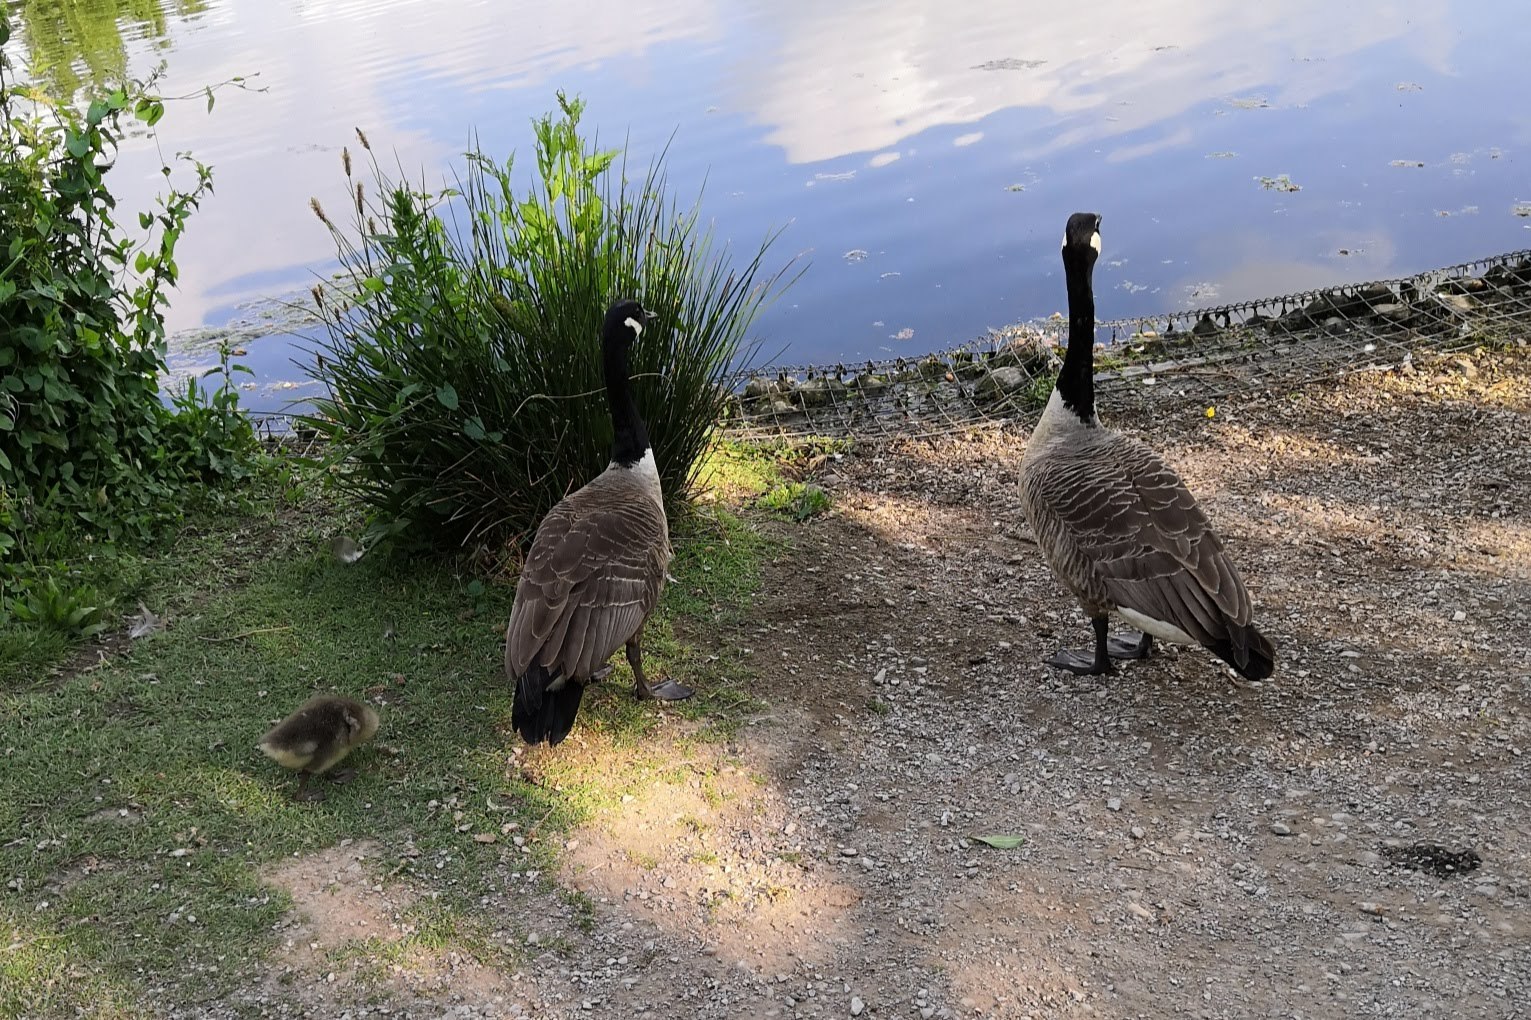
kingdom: Animalia
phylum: Chordata
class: Aves
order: Anseriformes
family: Anatidae
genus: Branta
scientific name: Branta canadensis
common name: Canada goose
